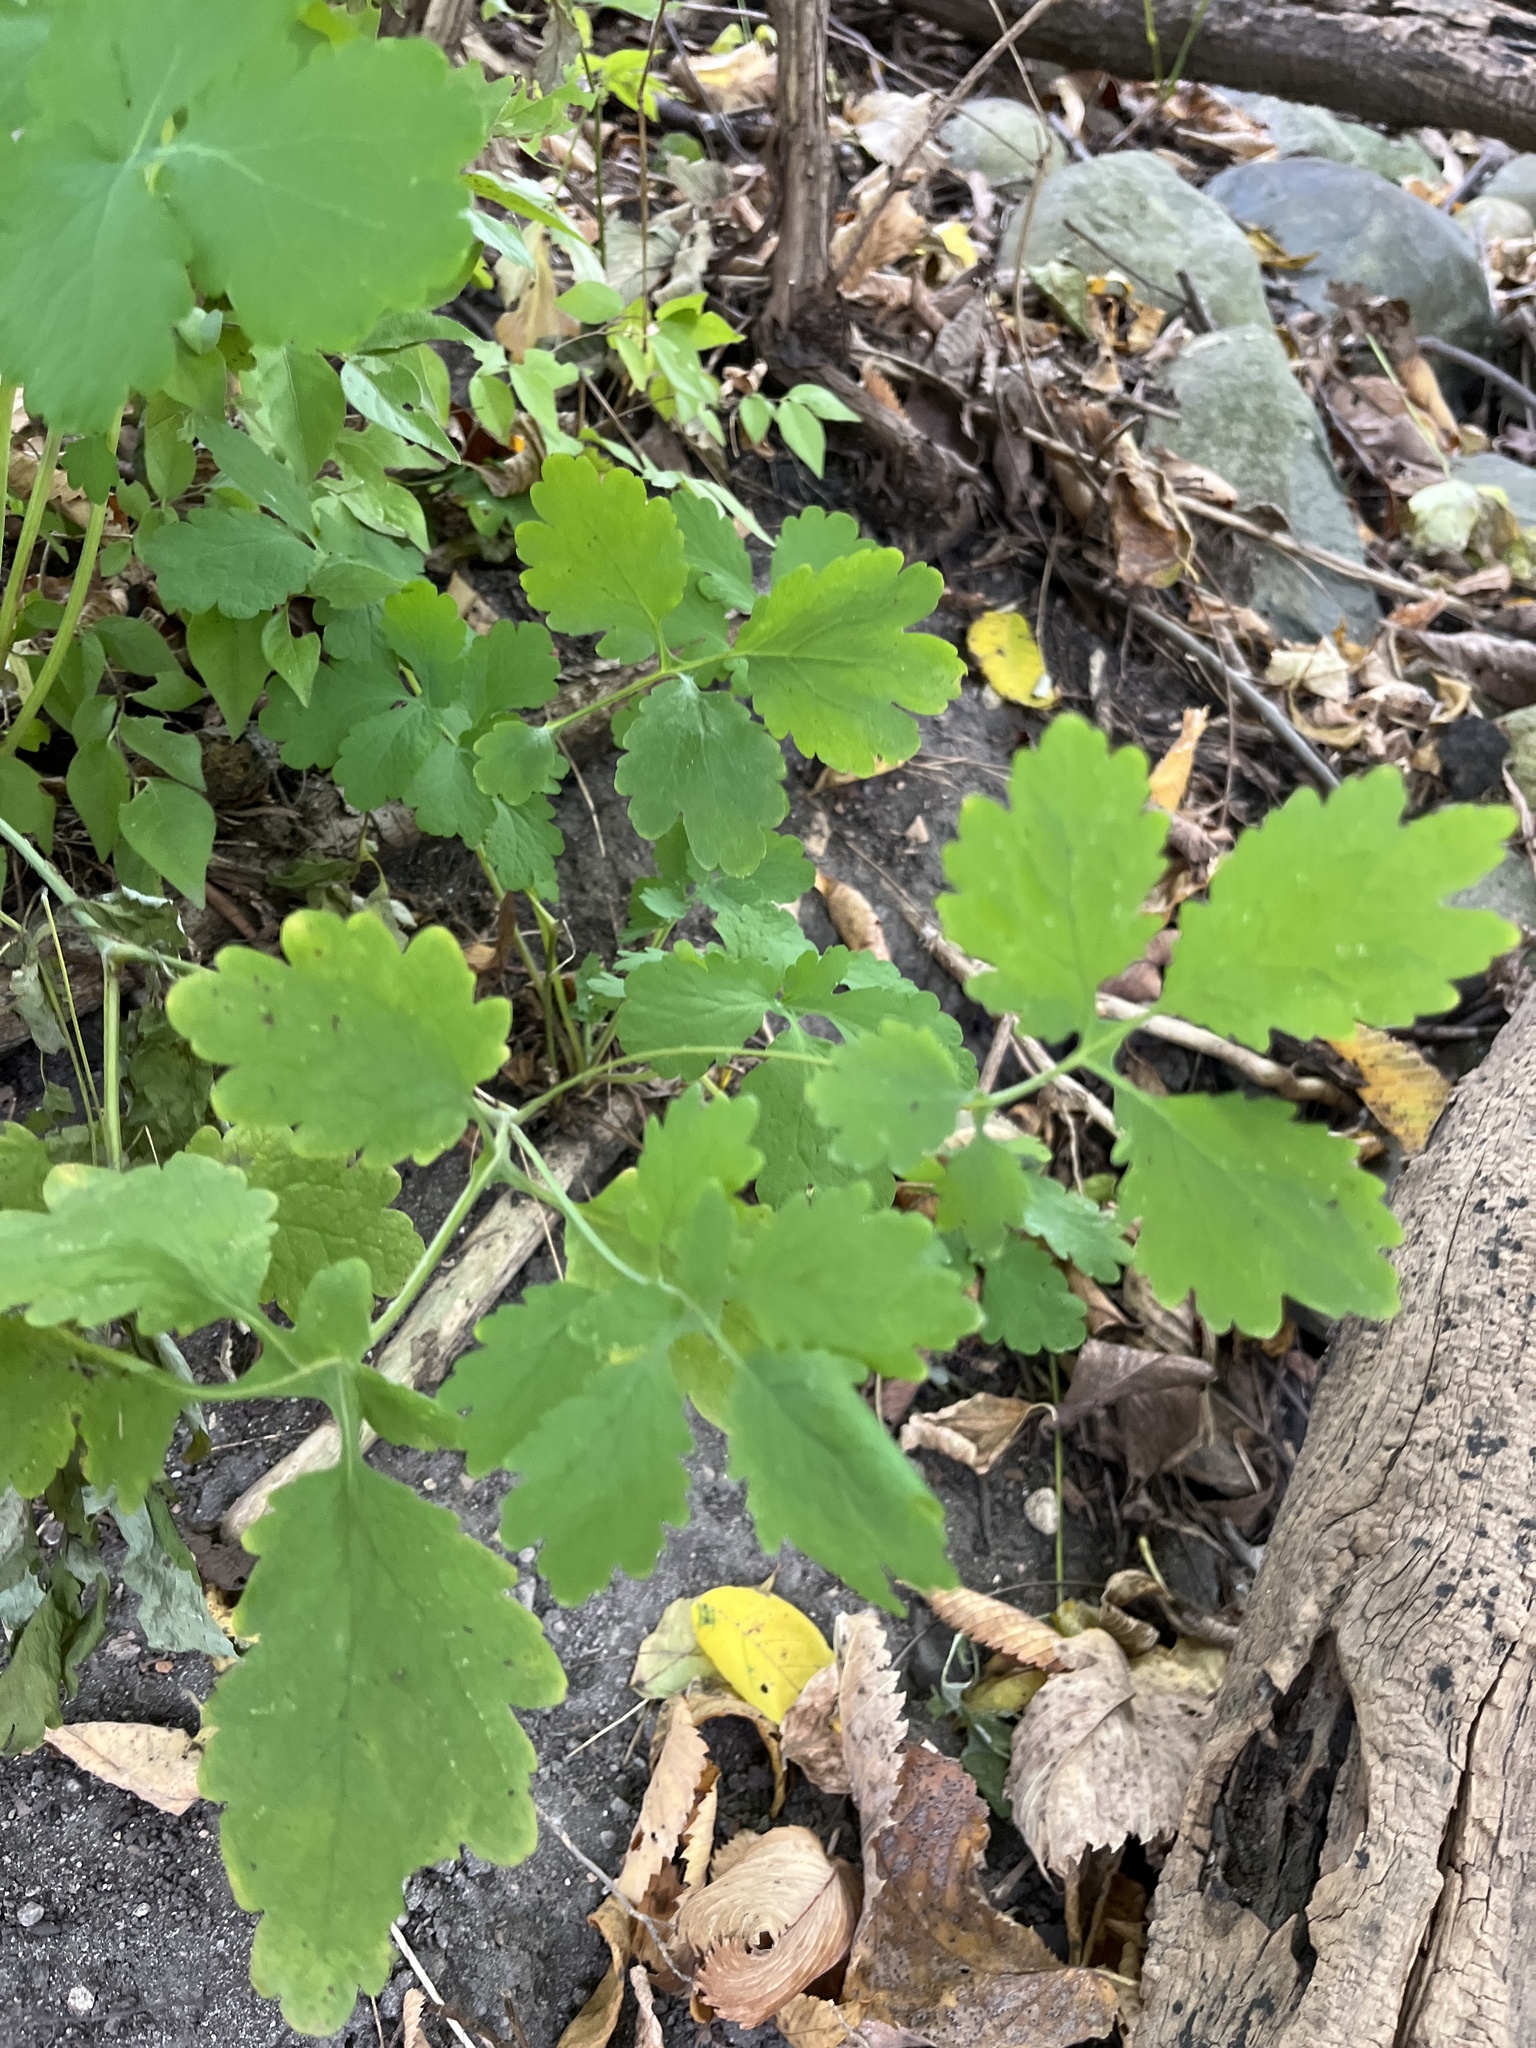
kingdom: Plantae
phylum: Tracheophyta
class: Magnoliopsida
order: Ranunculales
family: Papaveraceae
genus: Chelidonium
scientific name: Chelidonium majus
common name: Greater celandine
